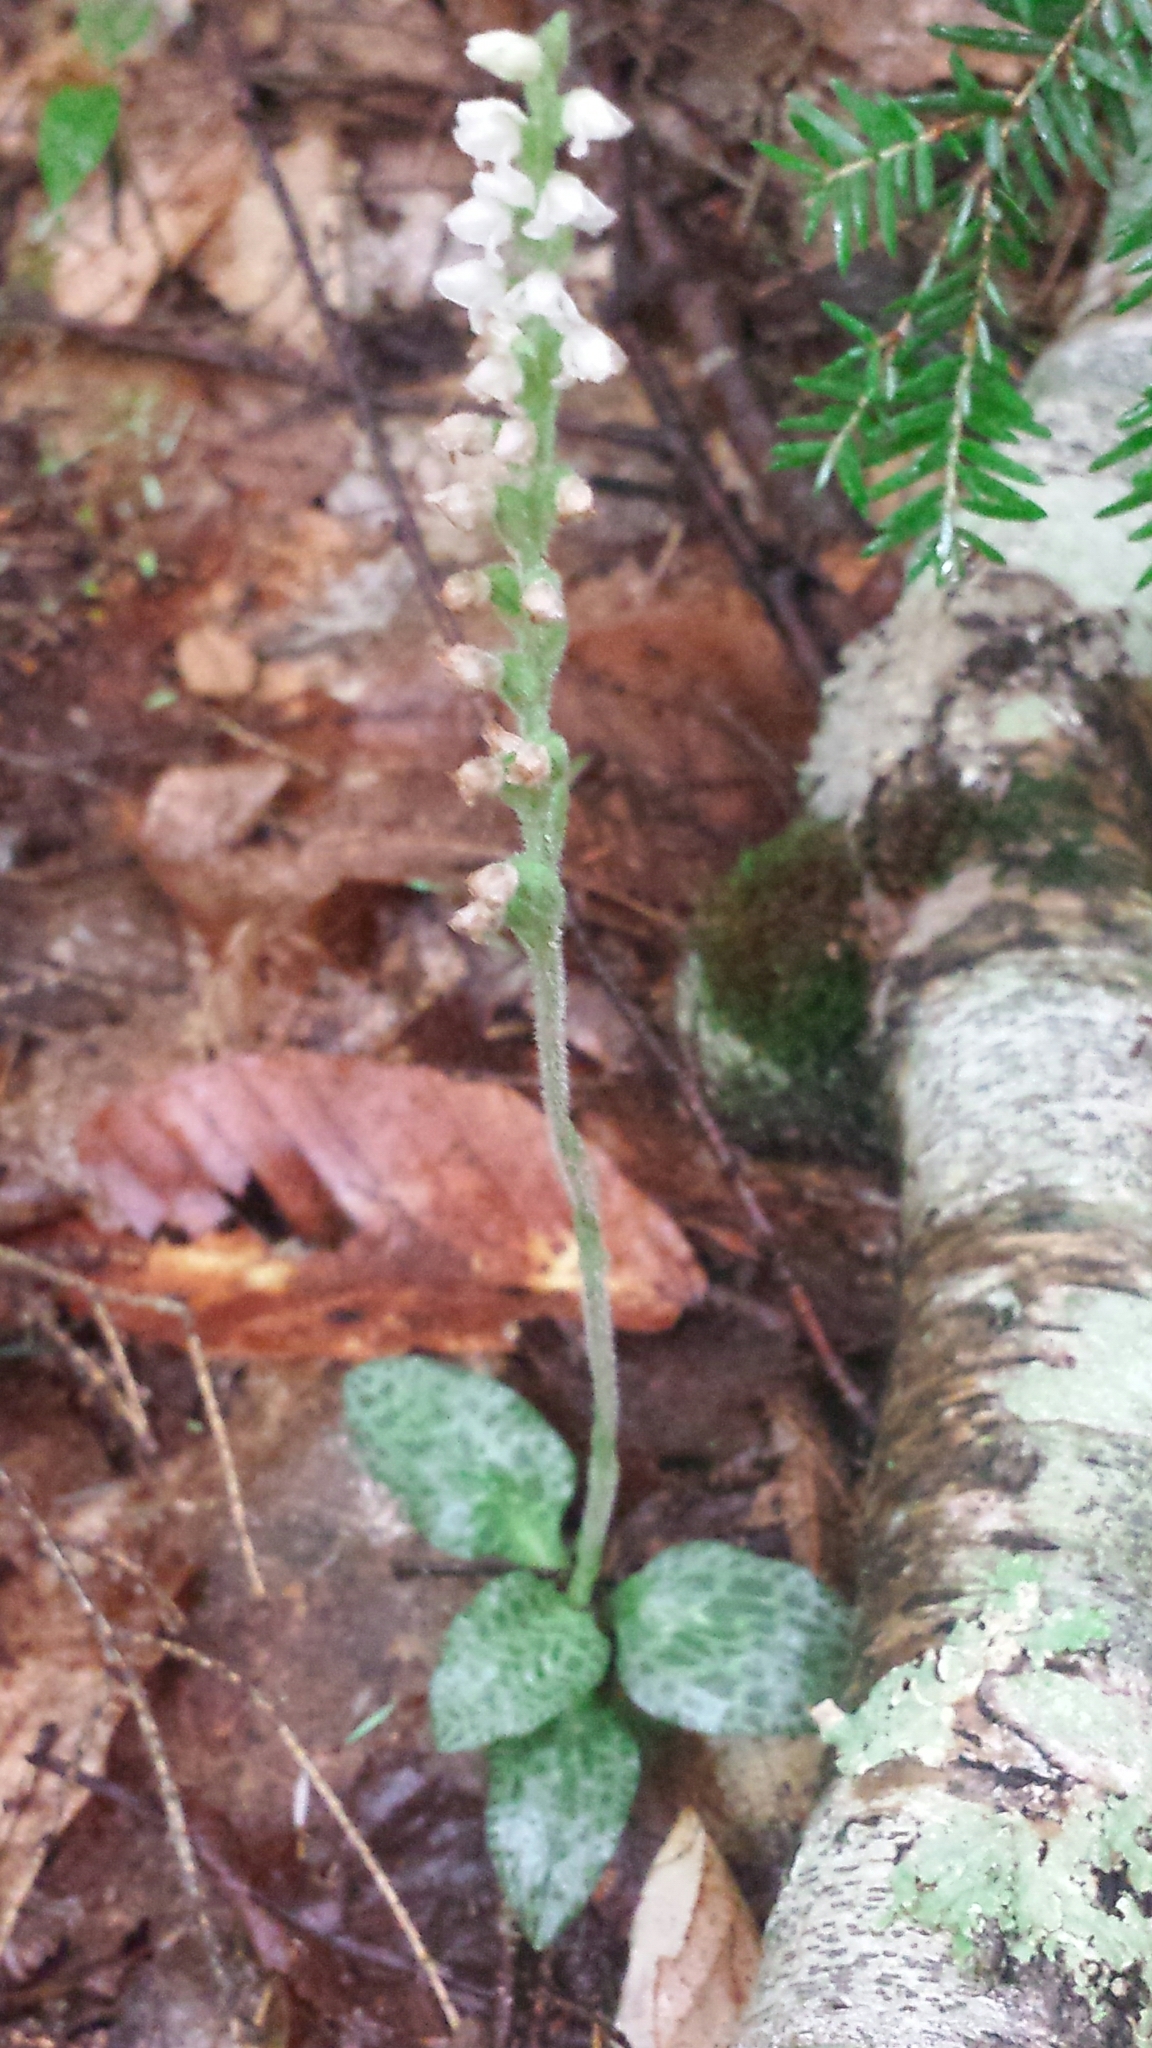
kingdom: Plantae
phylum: Tracheophyta
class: Liliopsida
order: Asparagales
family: Orchidaceae
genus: Goodyera
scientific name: Goodyera tesselata
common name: Checkered rattlesnake-plantain
